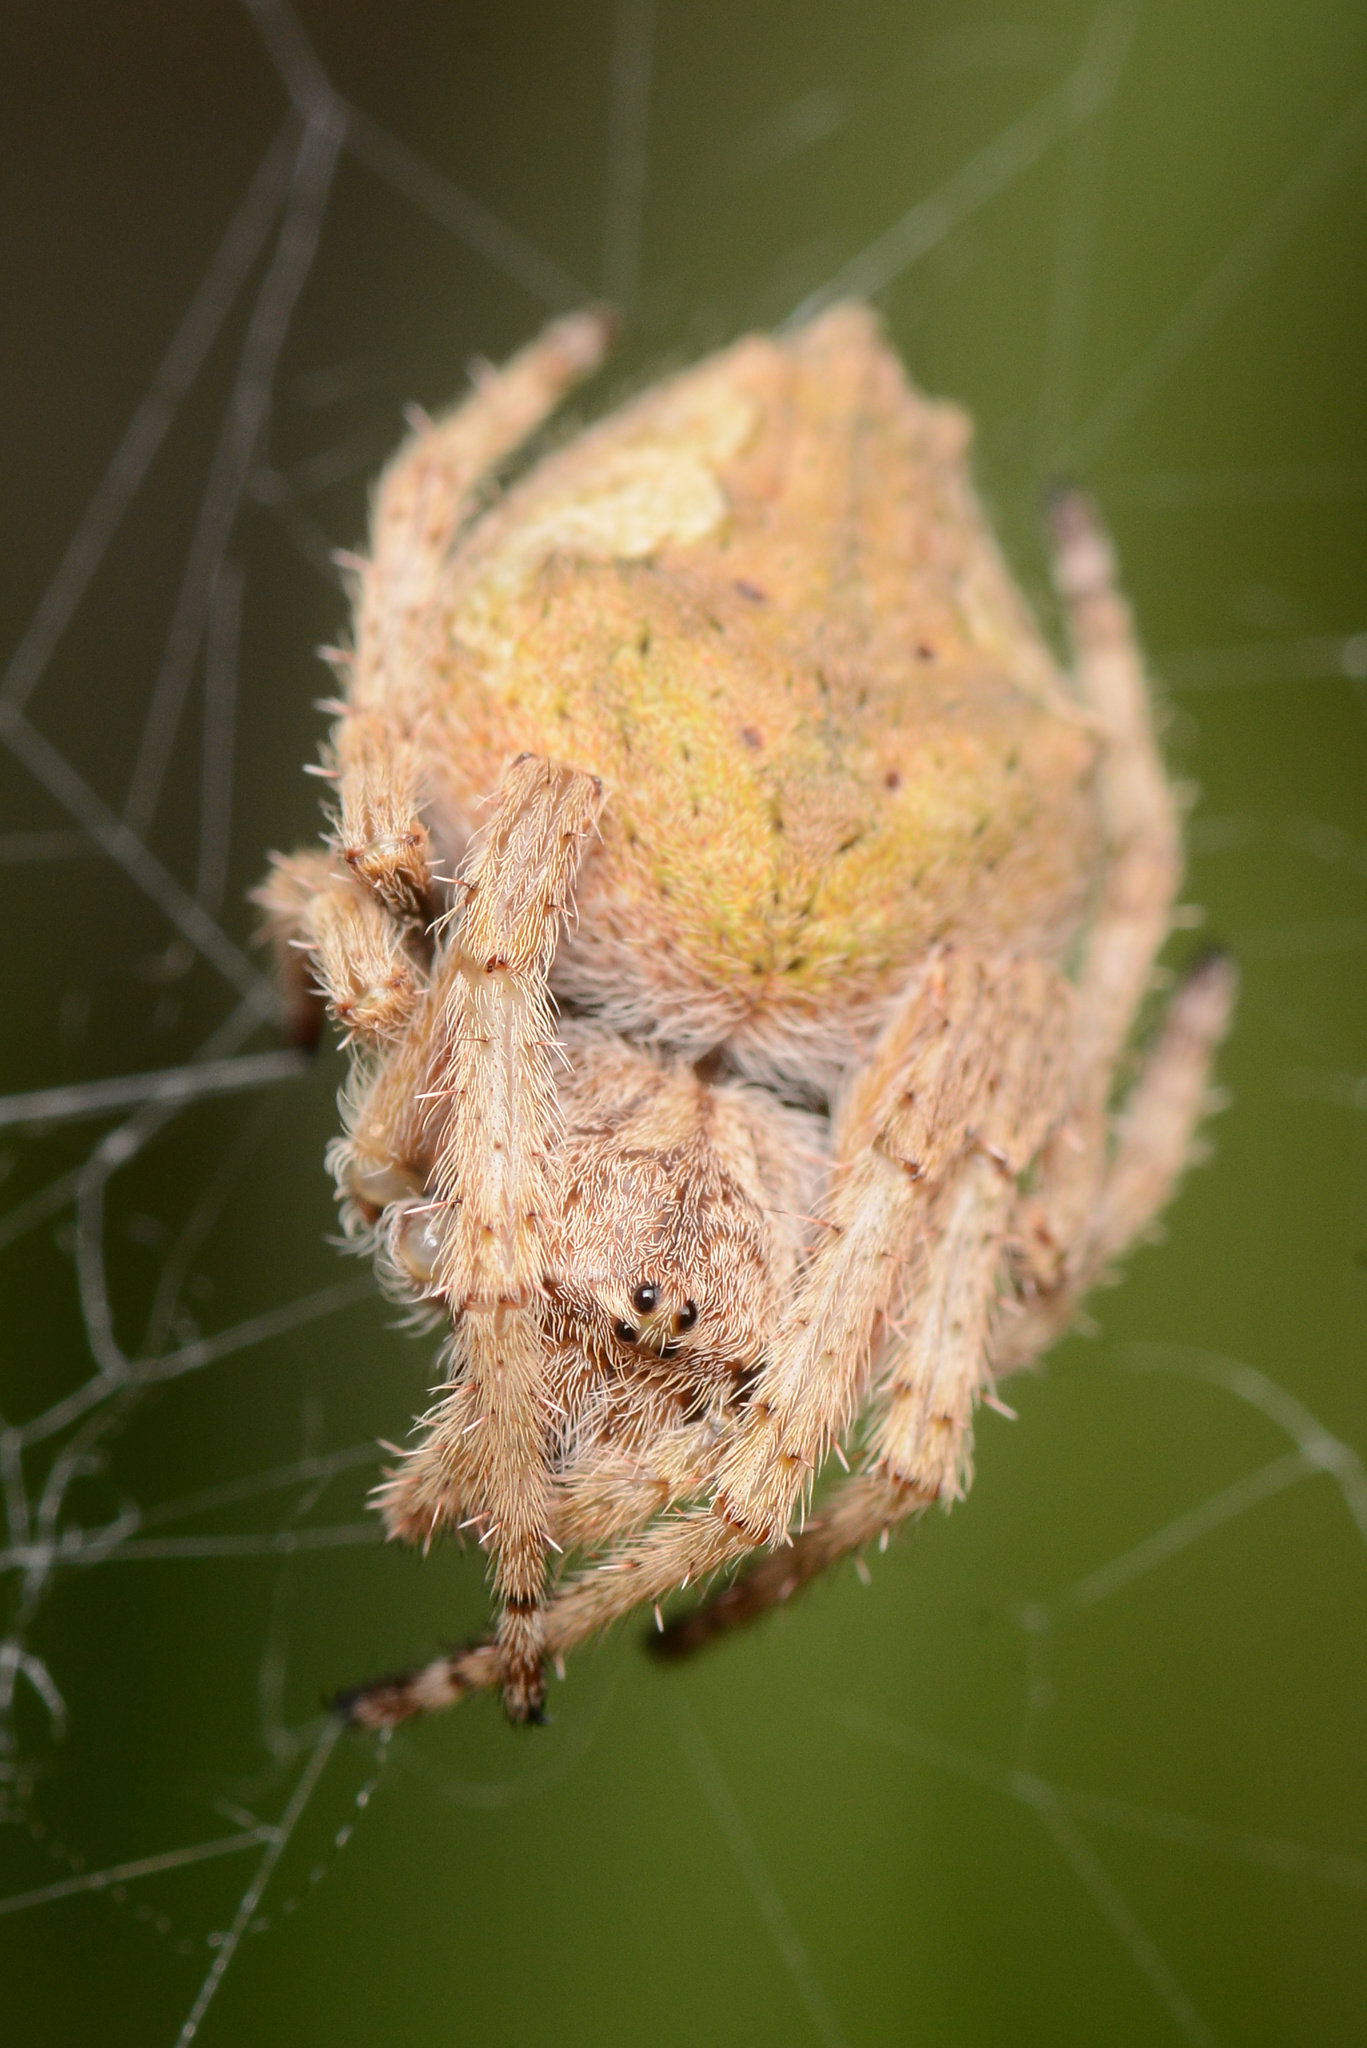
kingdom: Animalia
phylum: Arthropoda
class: Arachnida
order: Araneae
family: Araneidae
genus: Eriophora
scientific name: Eriophora pustulosa
